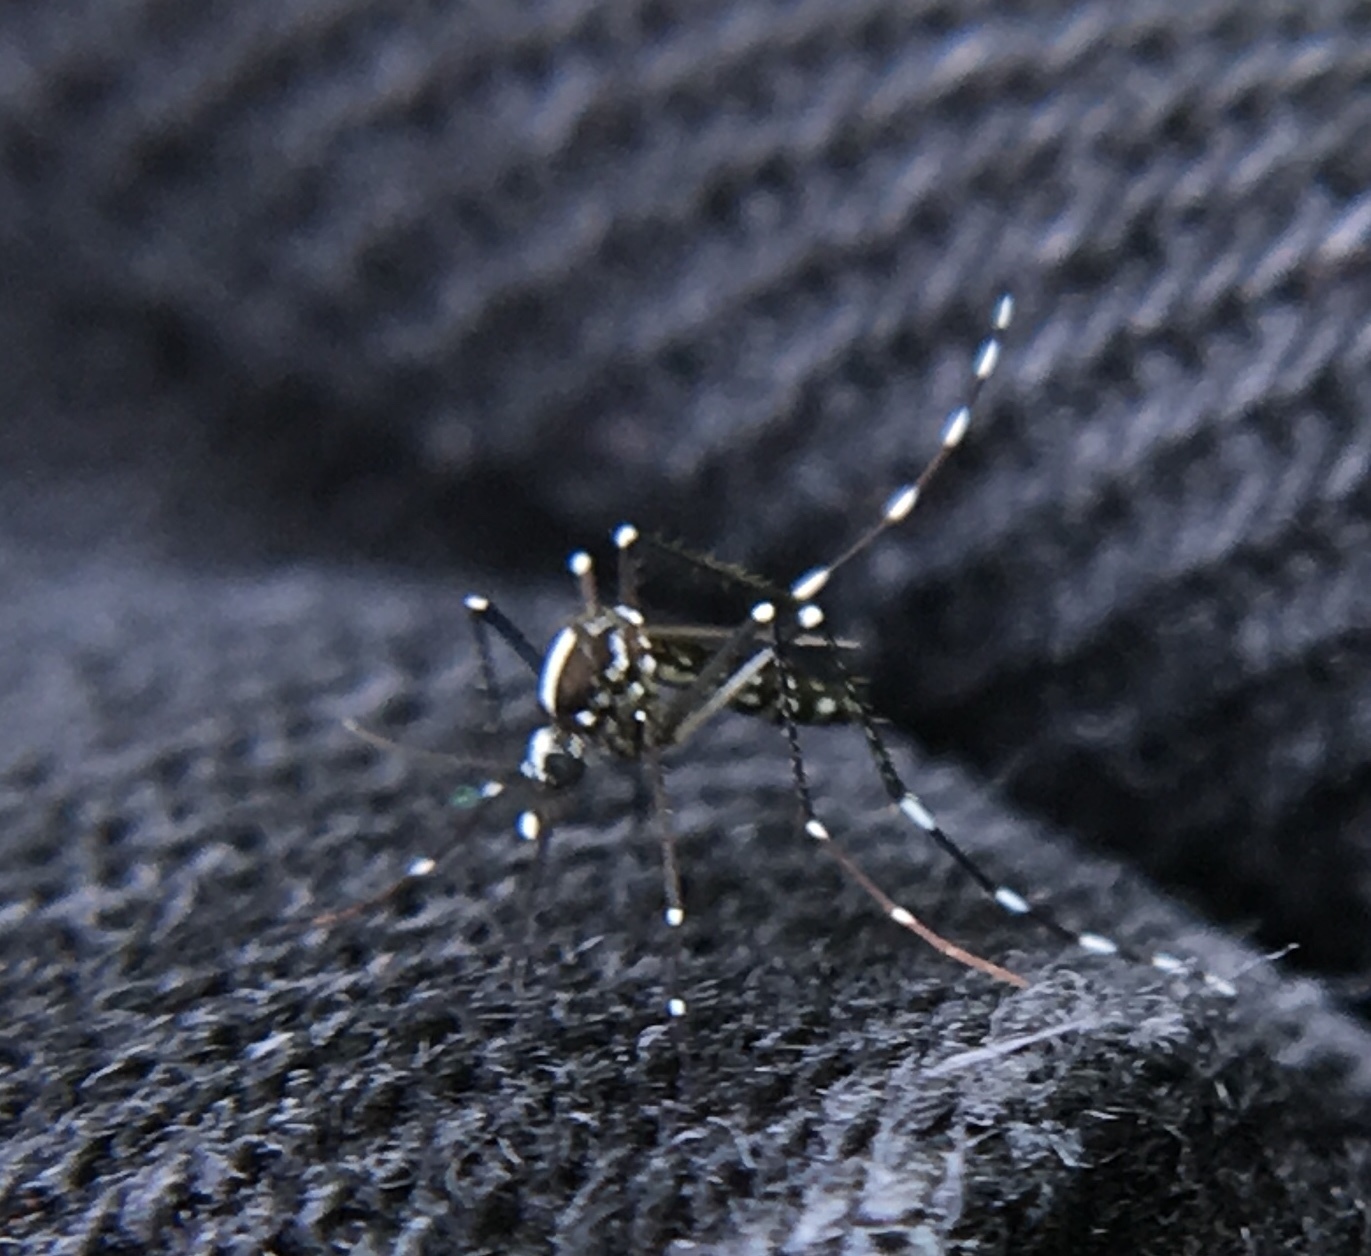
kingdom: Animalia
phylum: Arthropoda
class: Insecta
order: Diptera
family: Culicidae
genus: Aedes
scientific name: Aedes albopictus
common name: Tiger mosquito
